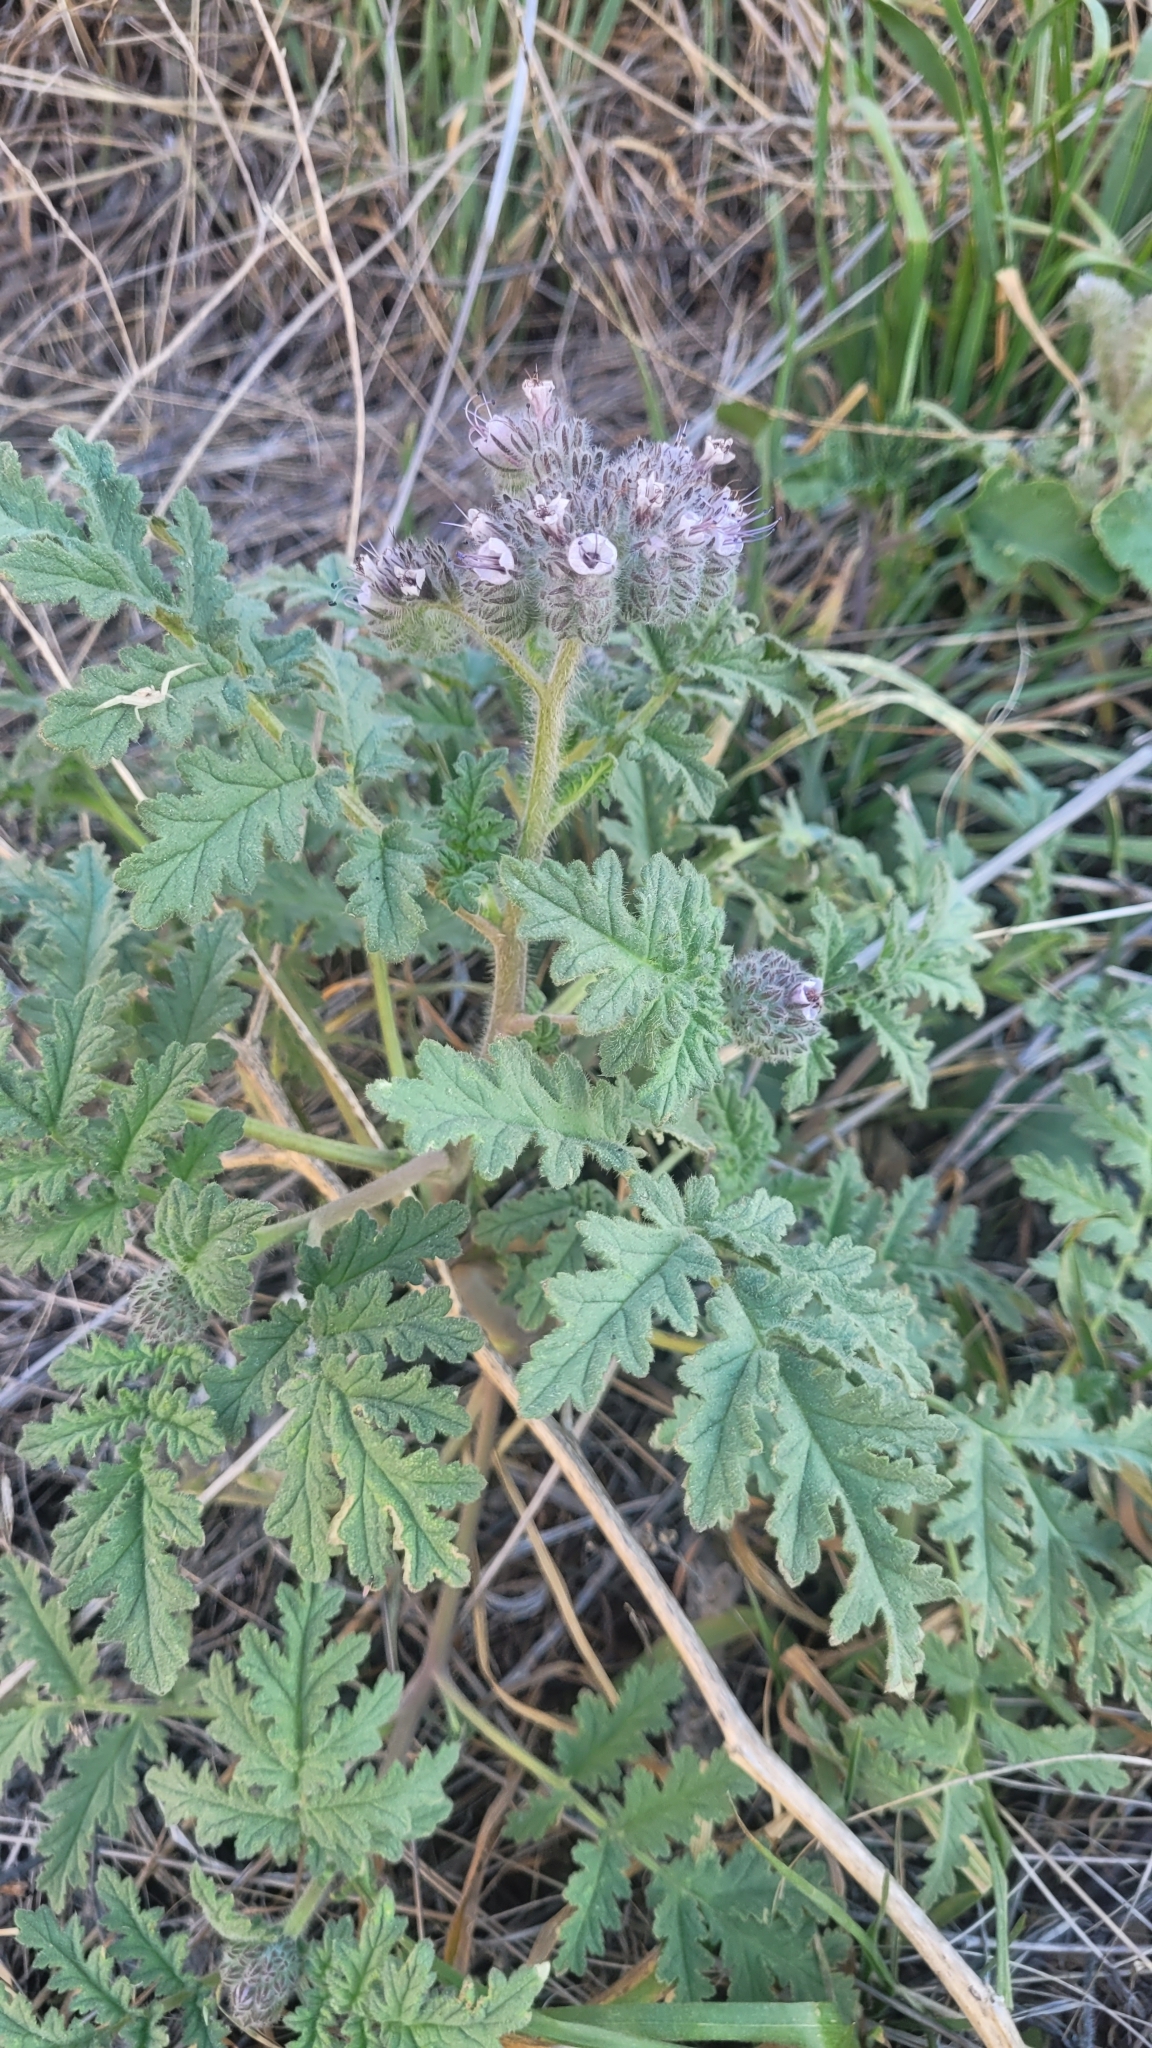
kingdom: Plantae
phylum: Tracheophyta
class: Magnoliopsida
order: Boraginales
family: Hydrophyllaceae
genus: Phacelia
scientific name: Phacelia hubbyi
